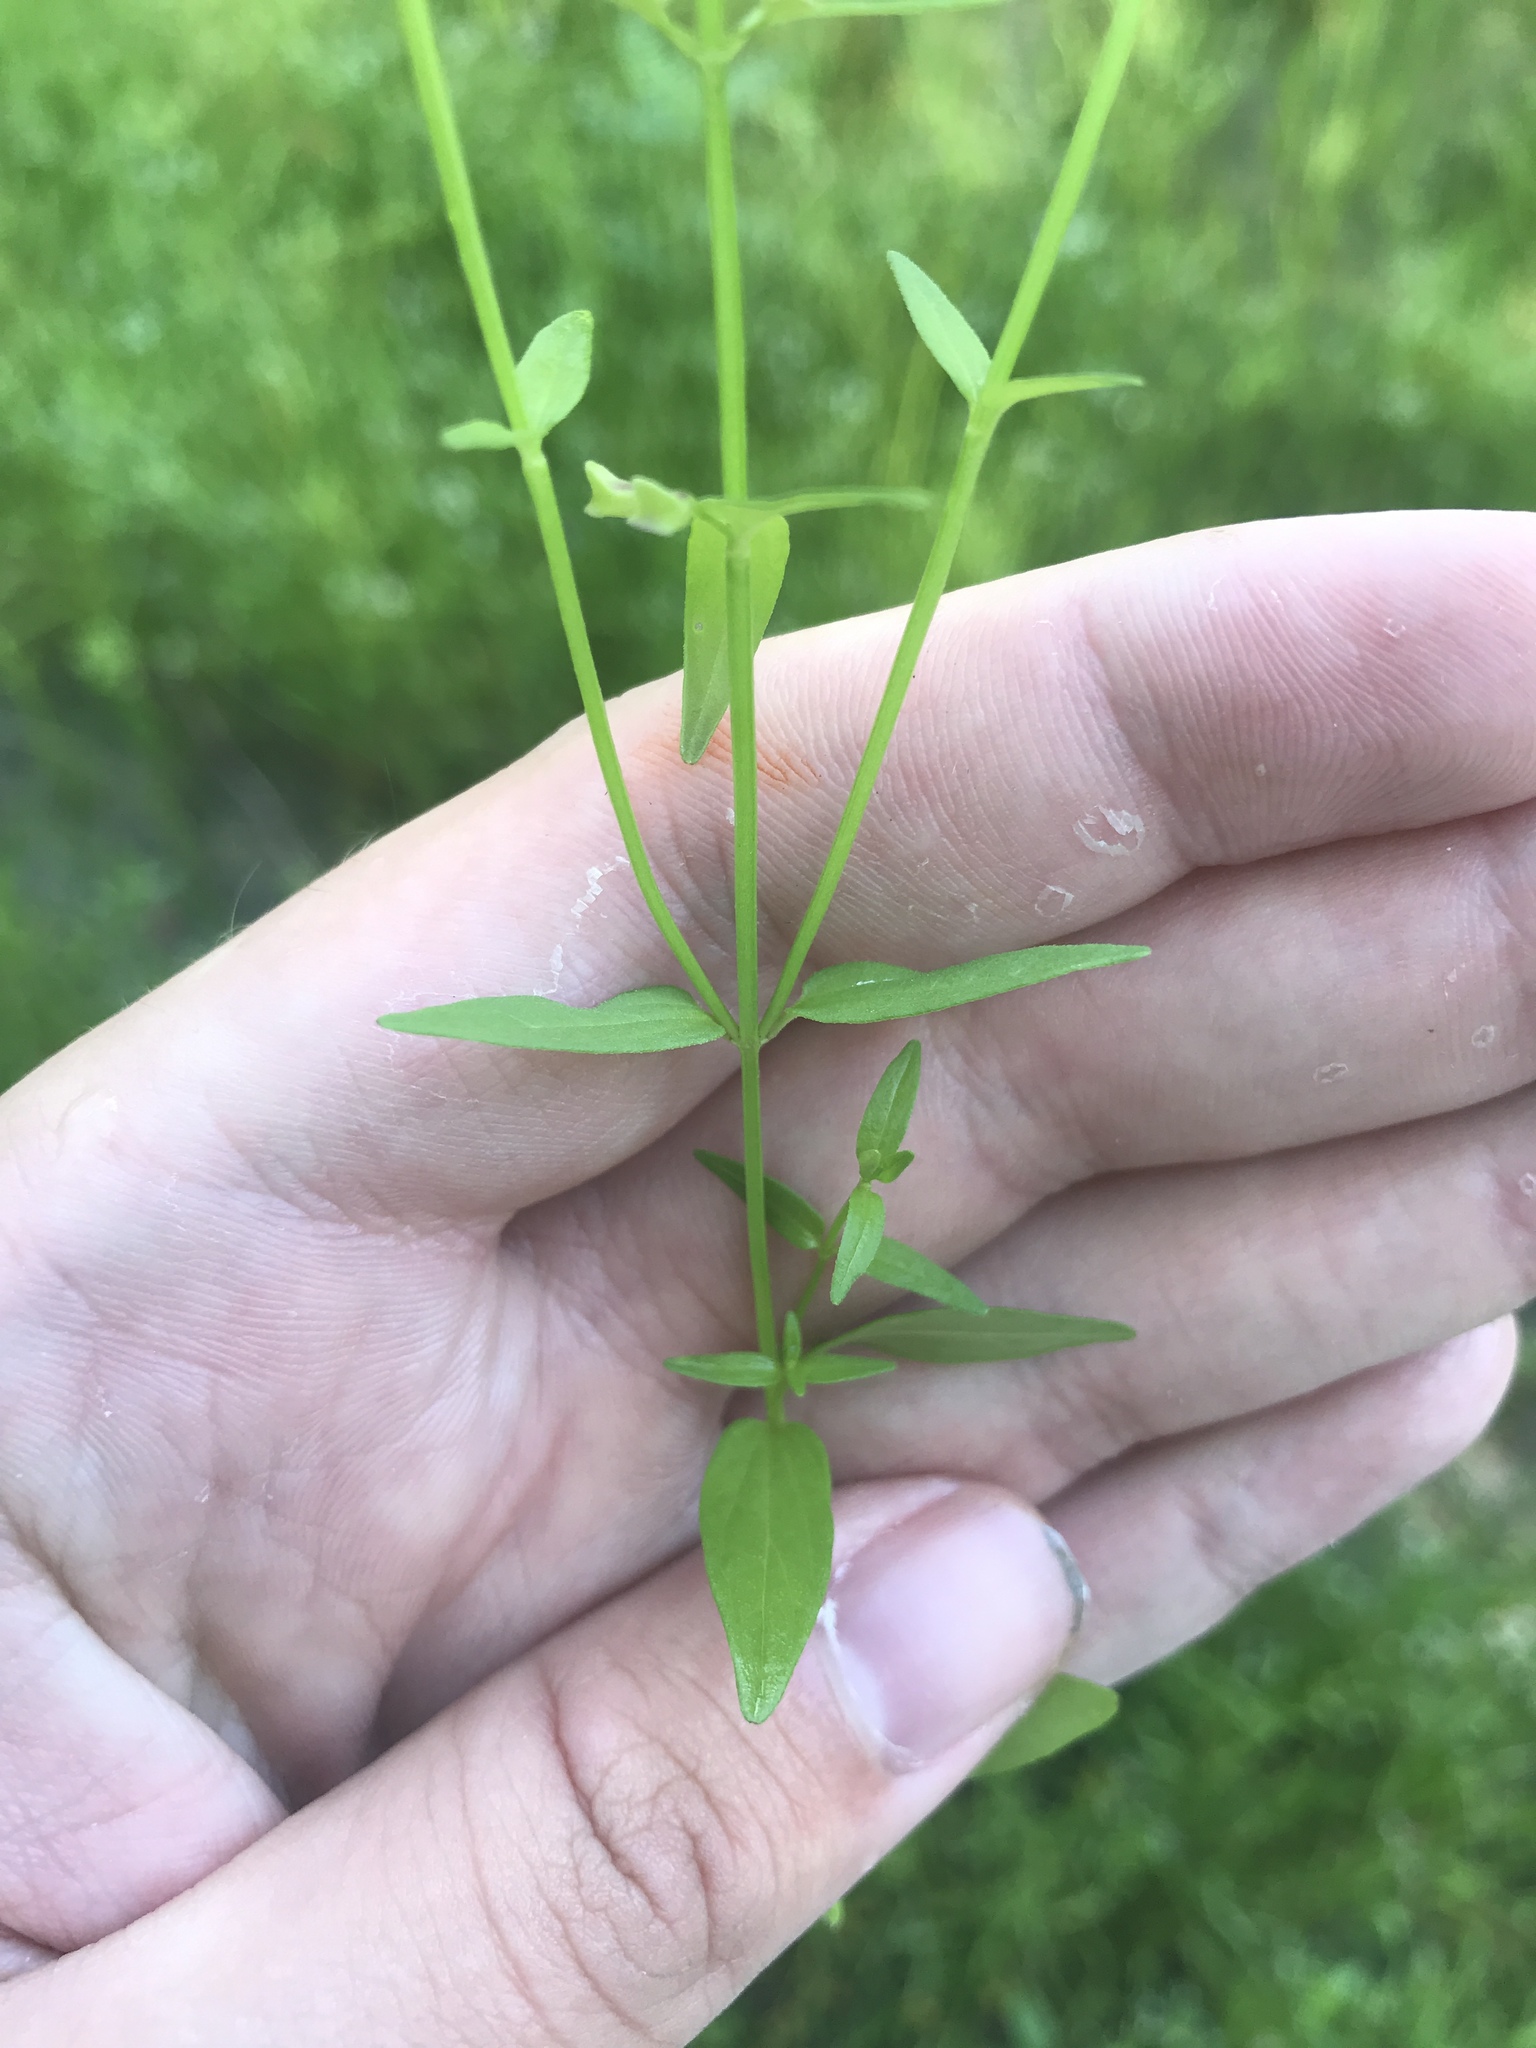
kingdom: Plantae
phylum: Tracheophyta
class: Magnoliopsida
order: Lamiales
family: Lamiaceae
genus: Scutellaria
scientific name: Scutellaria racemosa
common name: South american skullcap
